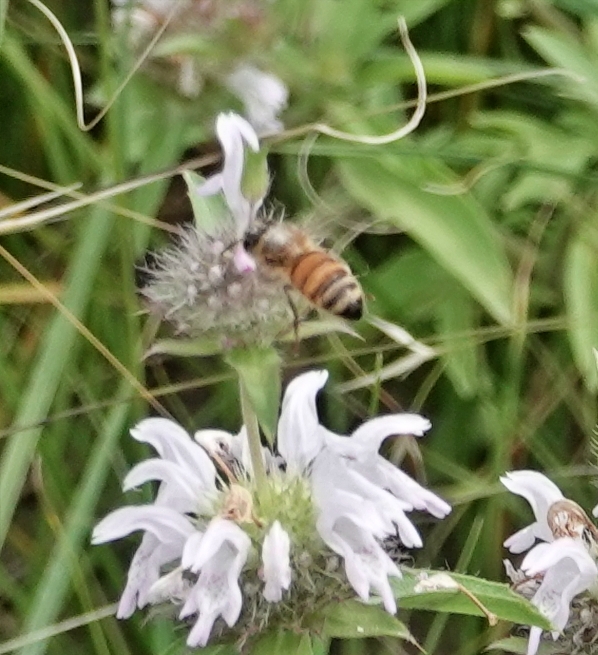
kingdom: Animalia
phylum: Arthropoda
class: Insecta
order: Hymenoptera
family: Apidae
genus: Apis
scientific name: Apis mellifera
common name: Honey bee
